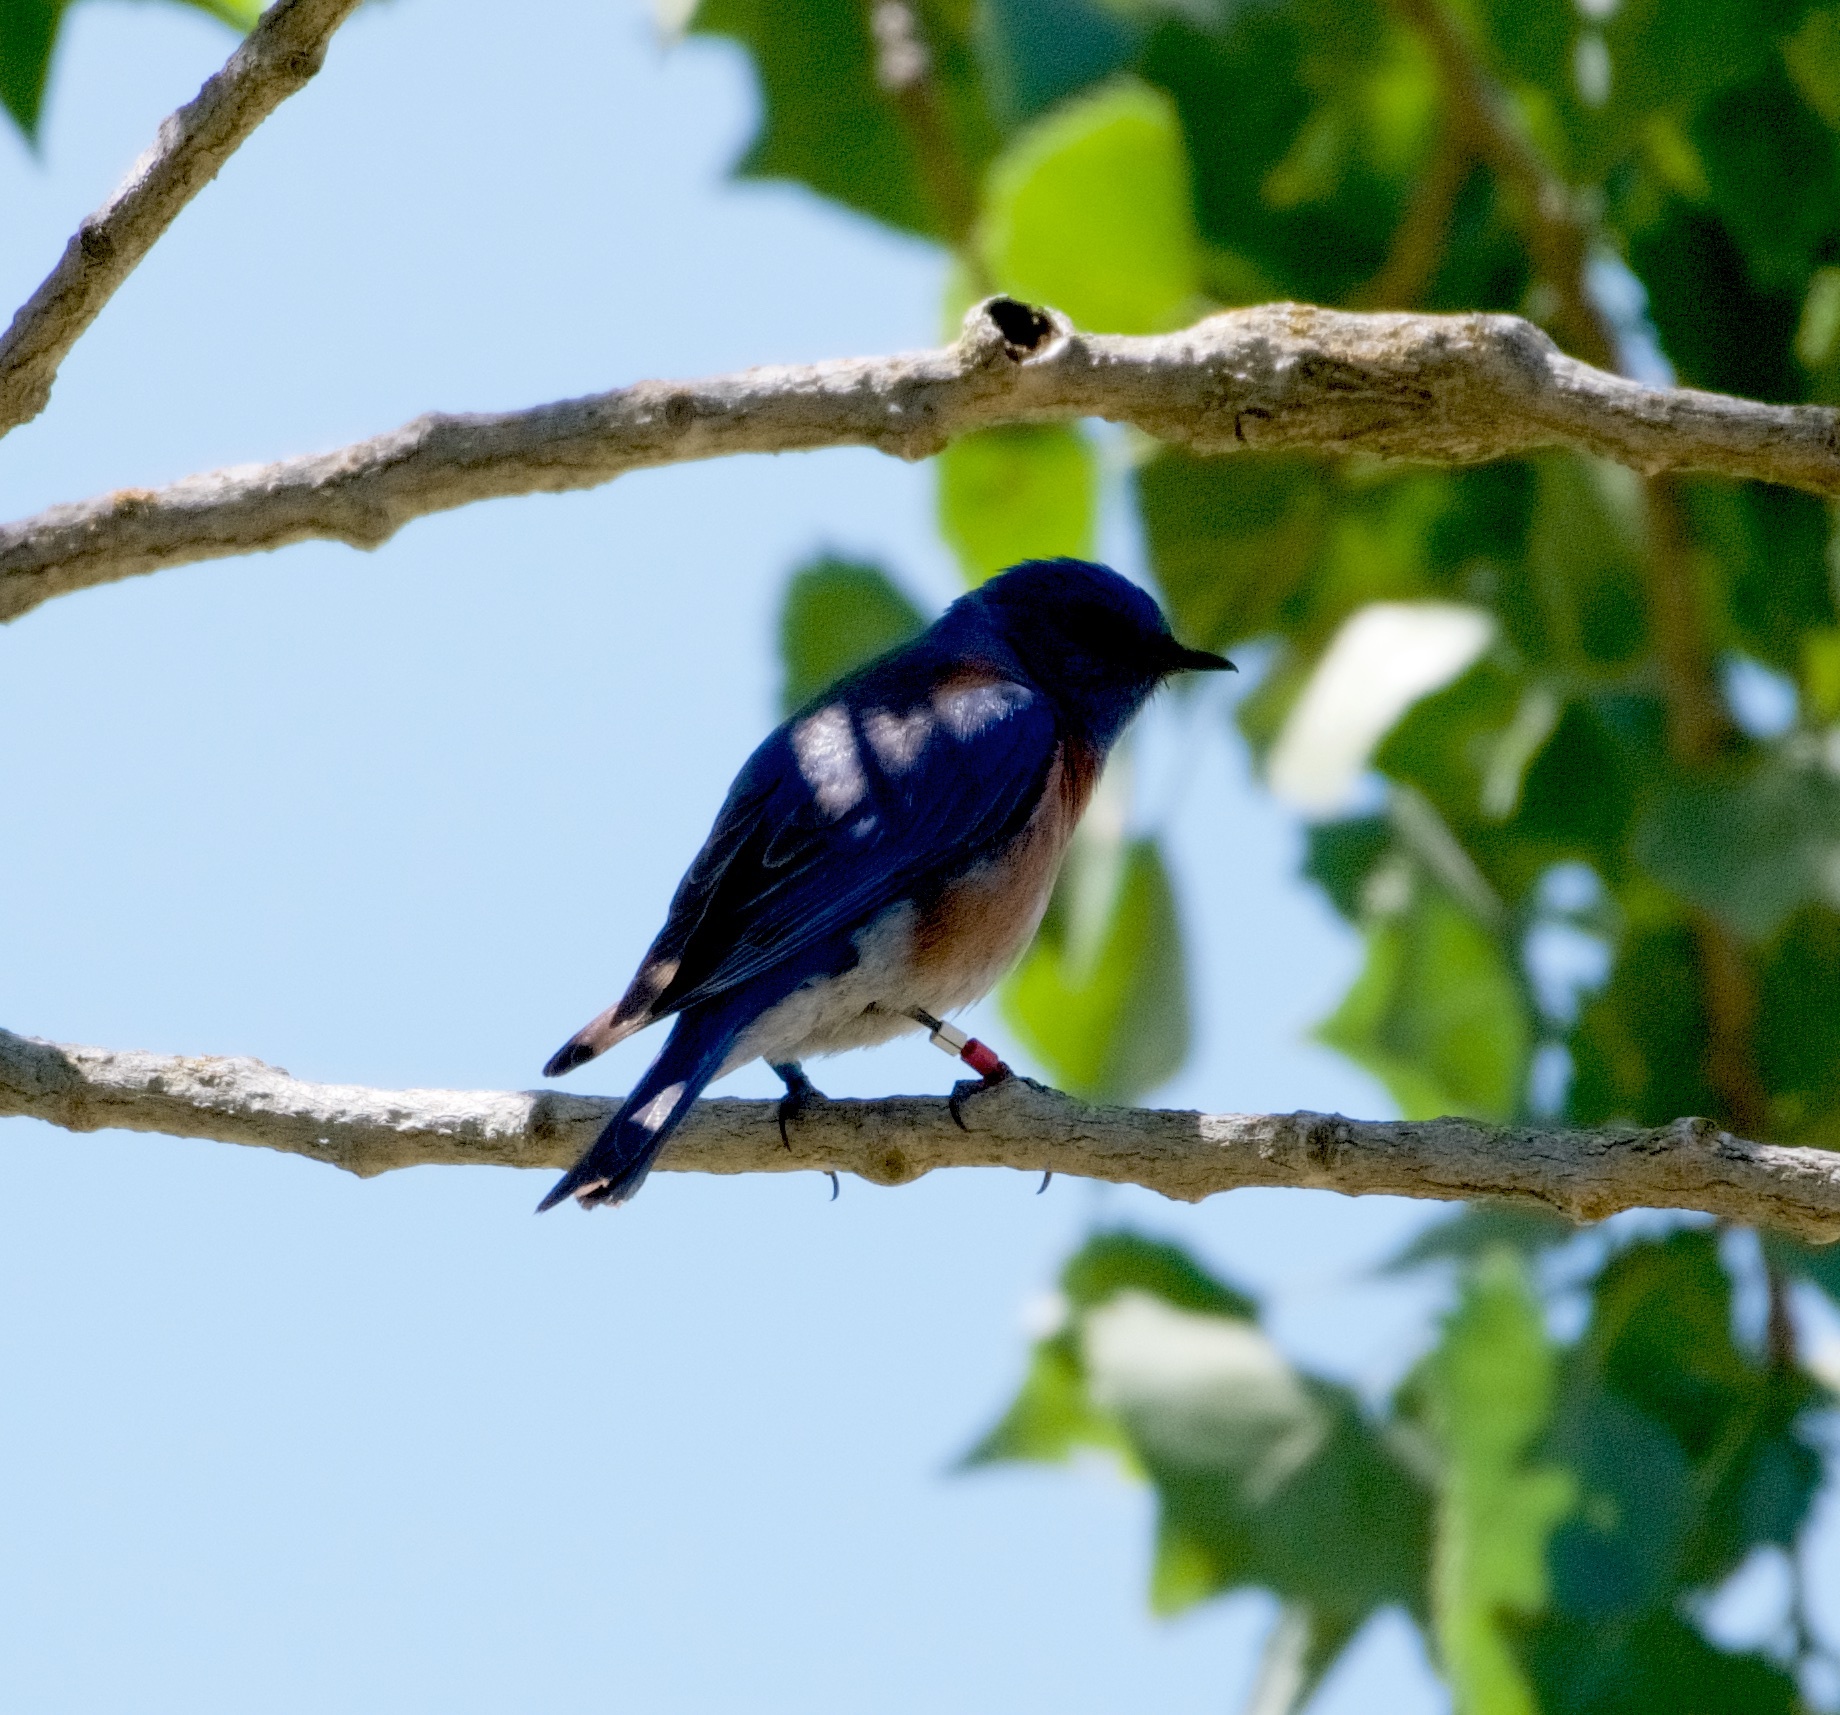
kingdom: Animalia
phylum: Chordata
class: Aves
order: Passeriformes
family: Turdidae
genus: Sialia
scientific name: Sialia mexicana
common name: Western bluebird
